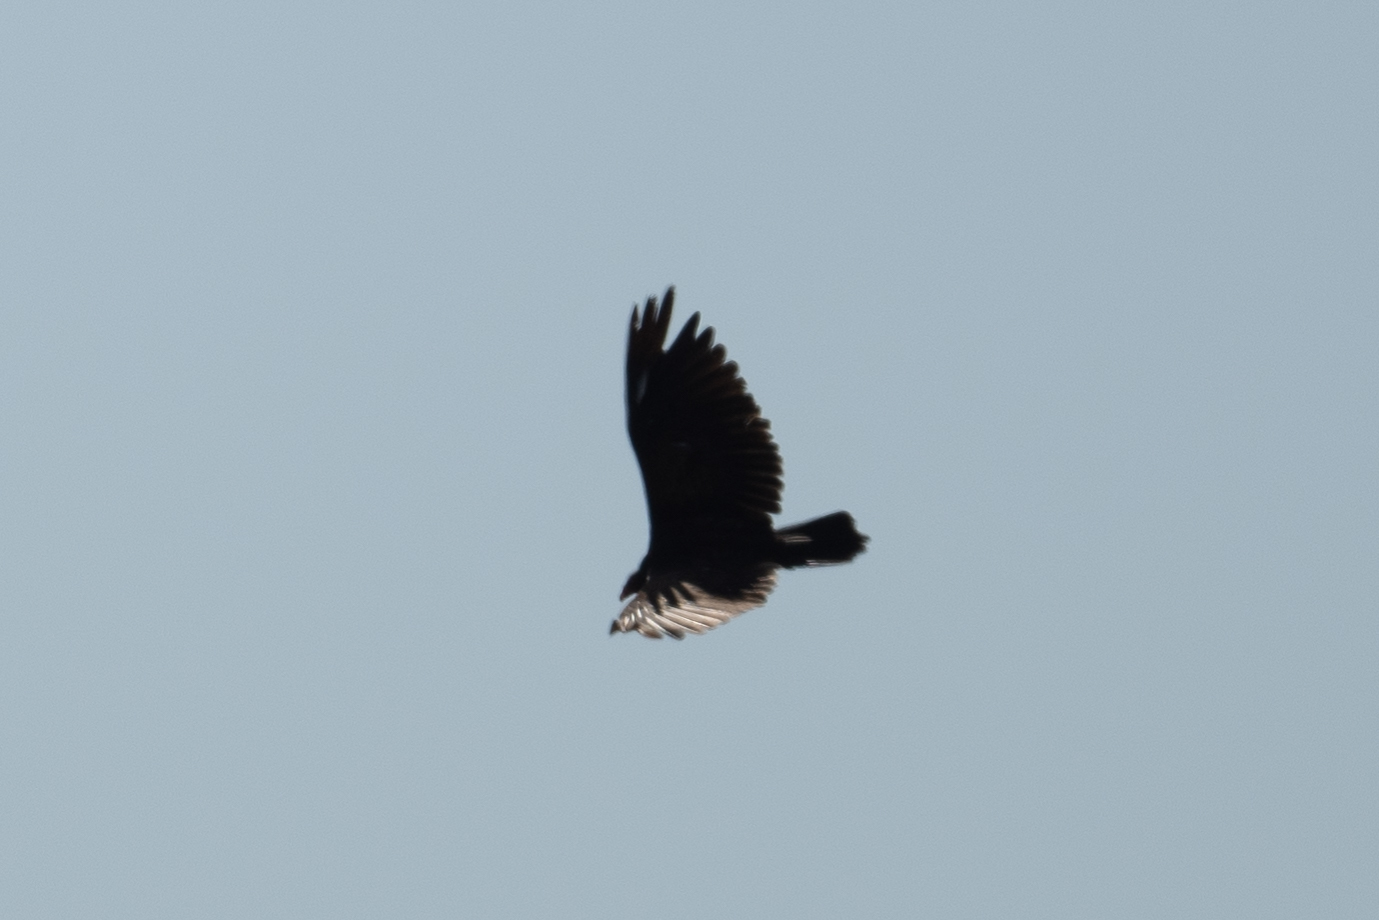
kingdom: Animalia
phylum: Chordata
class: Aves
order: Accipitriformes
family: Cathartidae
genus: Cathartes
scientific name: Cathartes aura
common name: Turkey vulture
